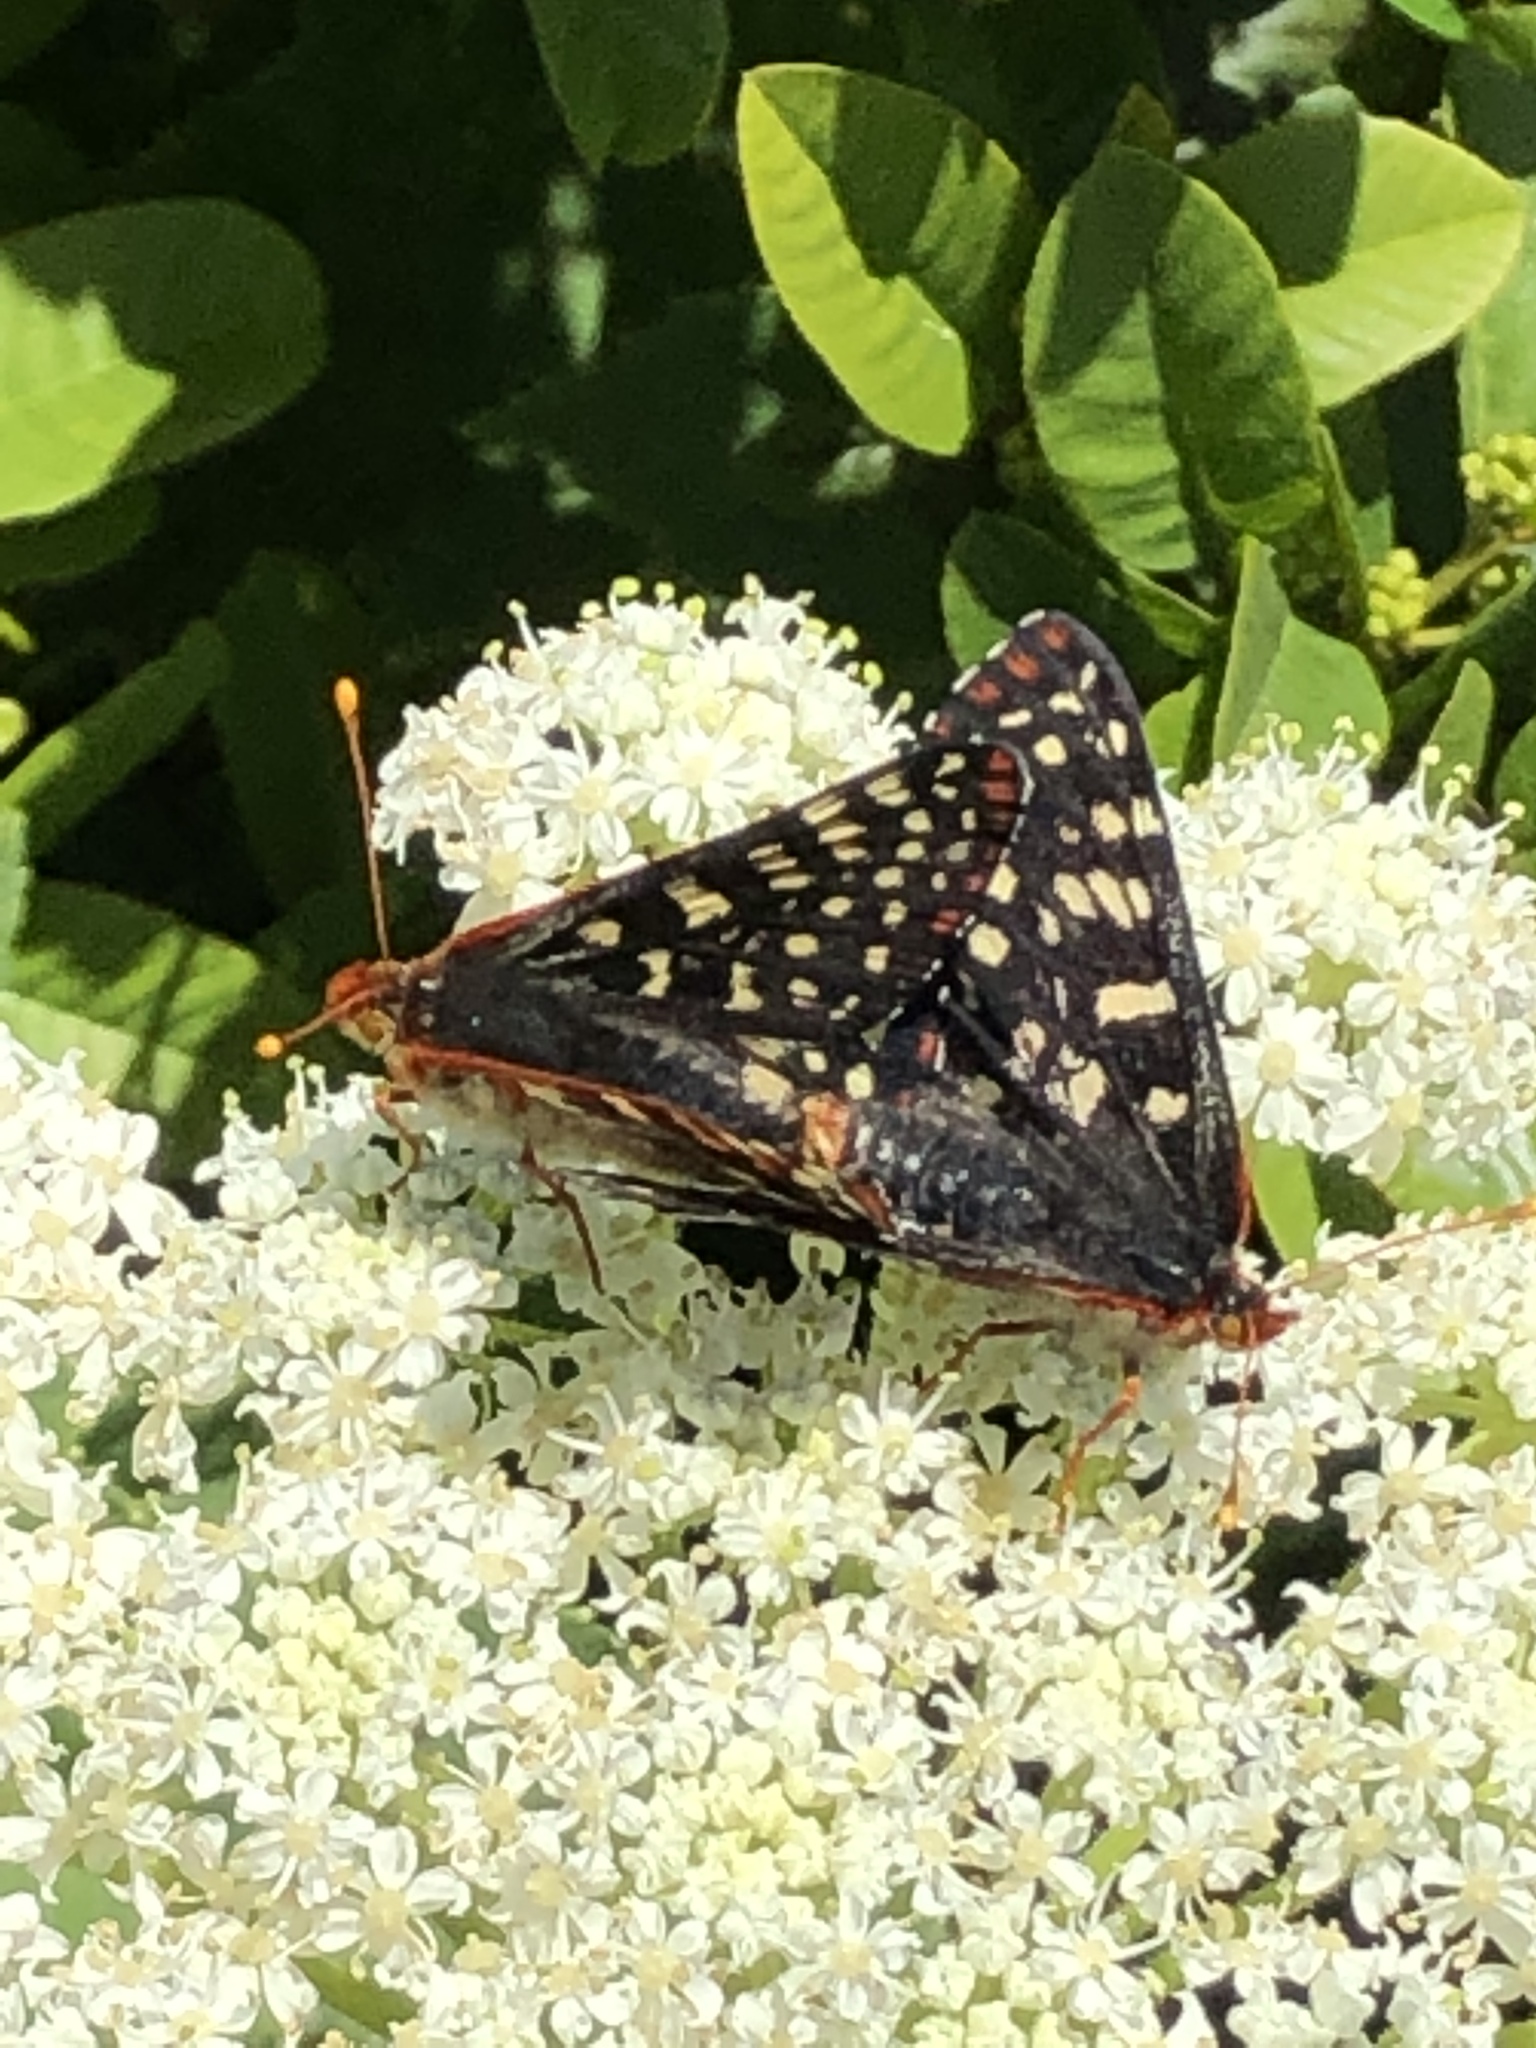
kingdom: Animalia
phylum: Arthropoda
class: Insecta
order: Lepidoptera
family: Nymphalidae
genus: Occidryas
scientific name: Occidryas chalcedona
